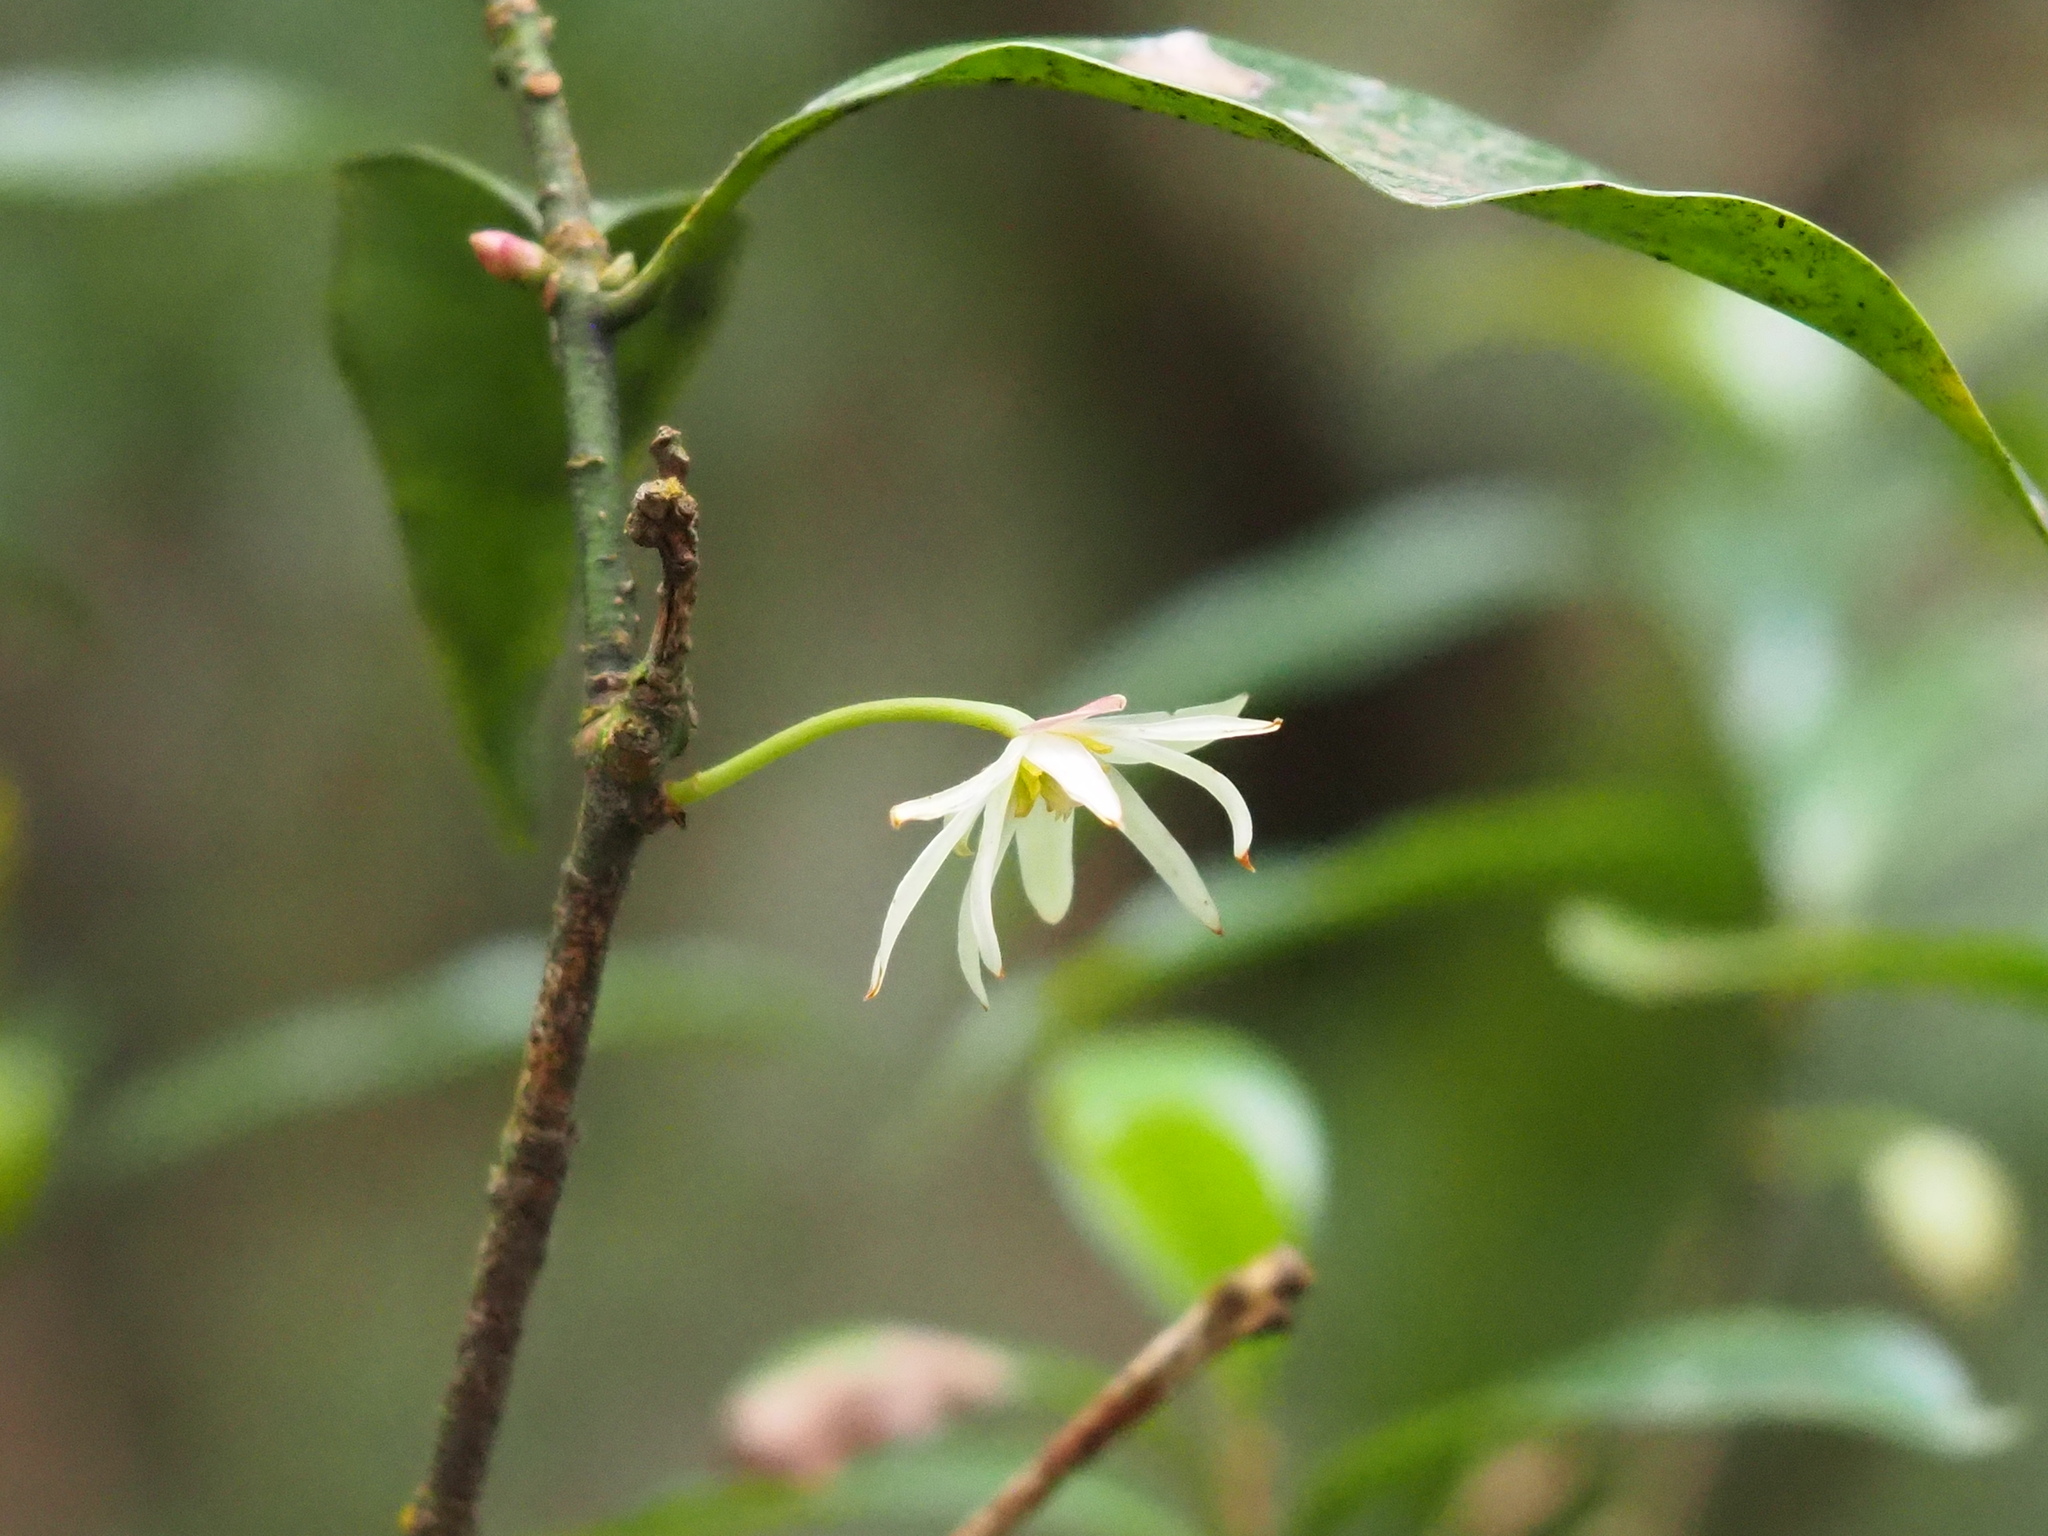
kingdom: Plantae
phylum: Tracheophyta
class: Magnoliopsida
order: Austrobaileyales
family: Schisandraceae
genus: Illicium
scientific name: Illicium anisatum
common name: Sacred anisetree
